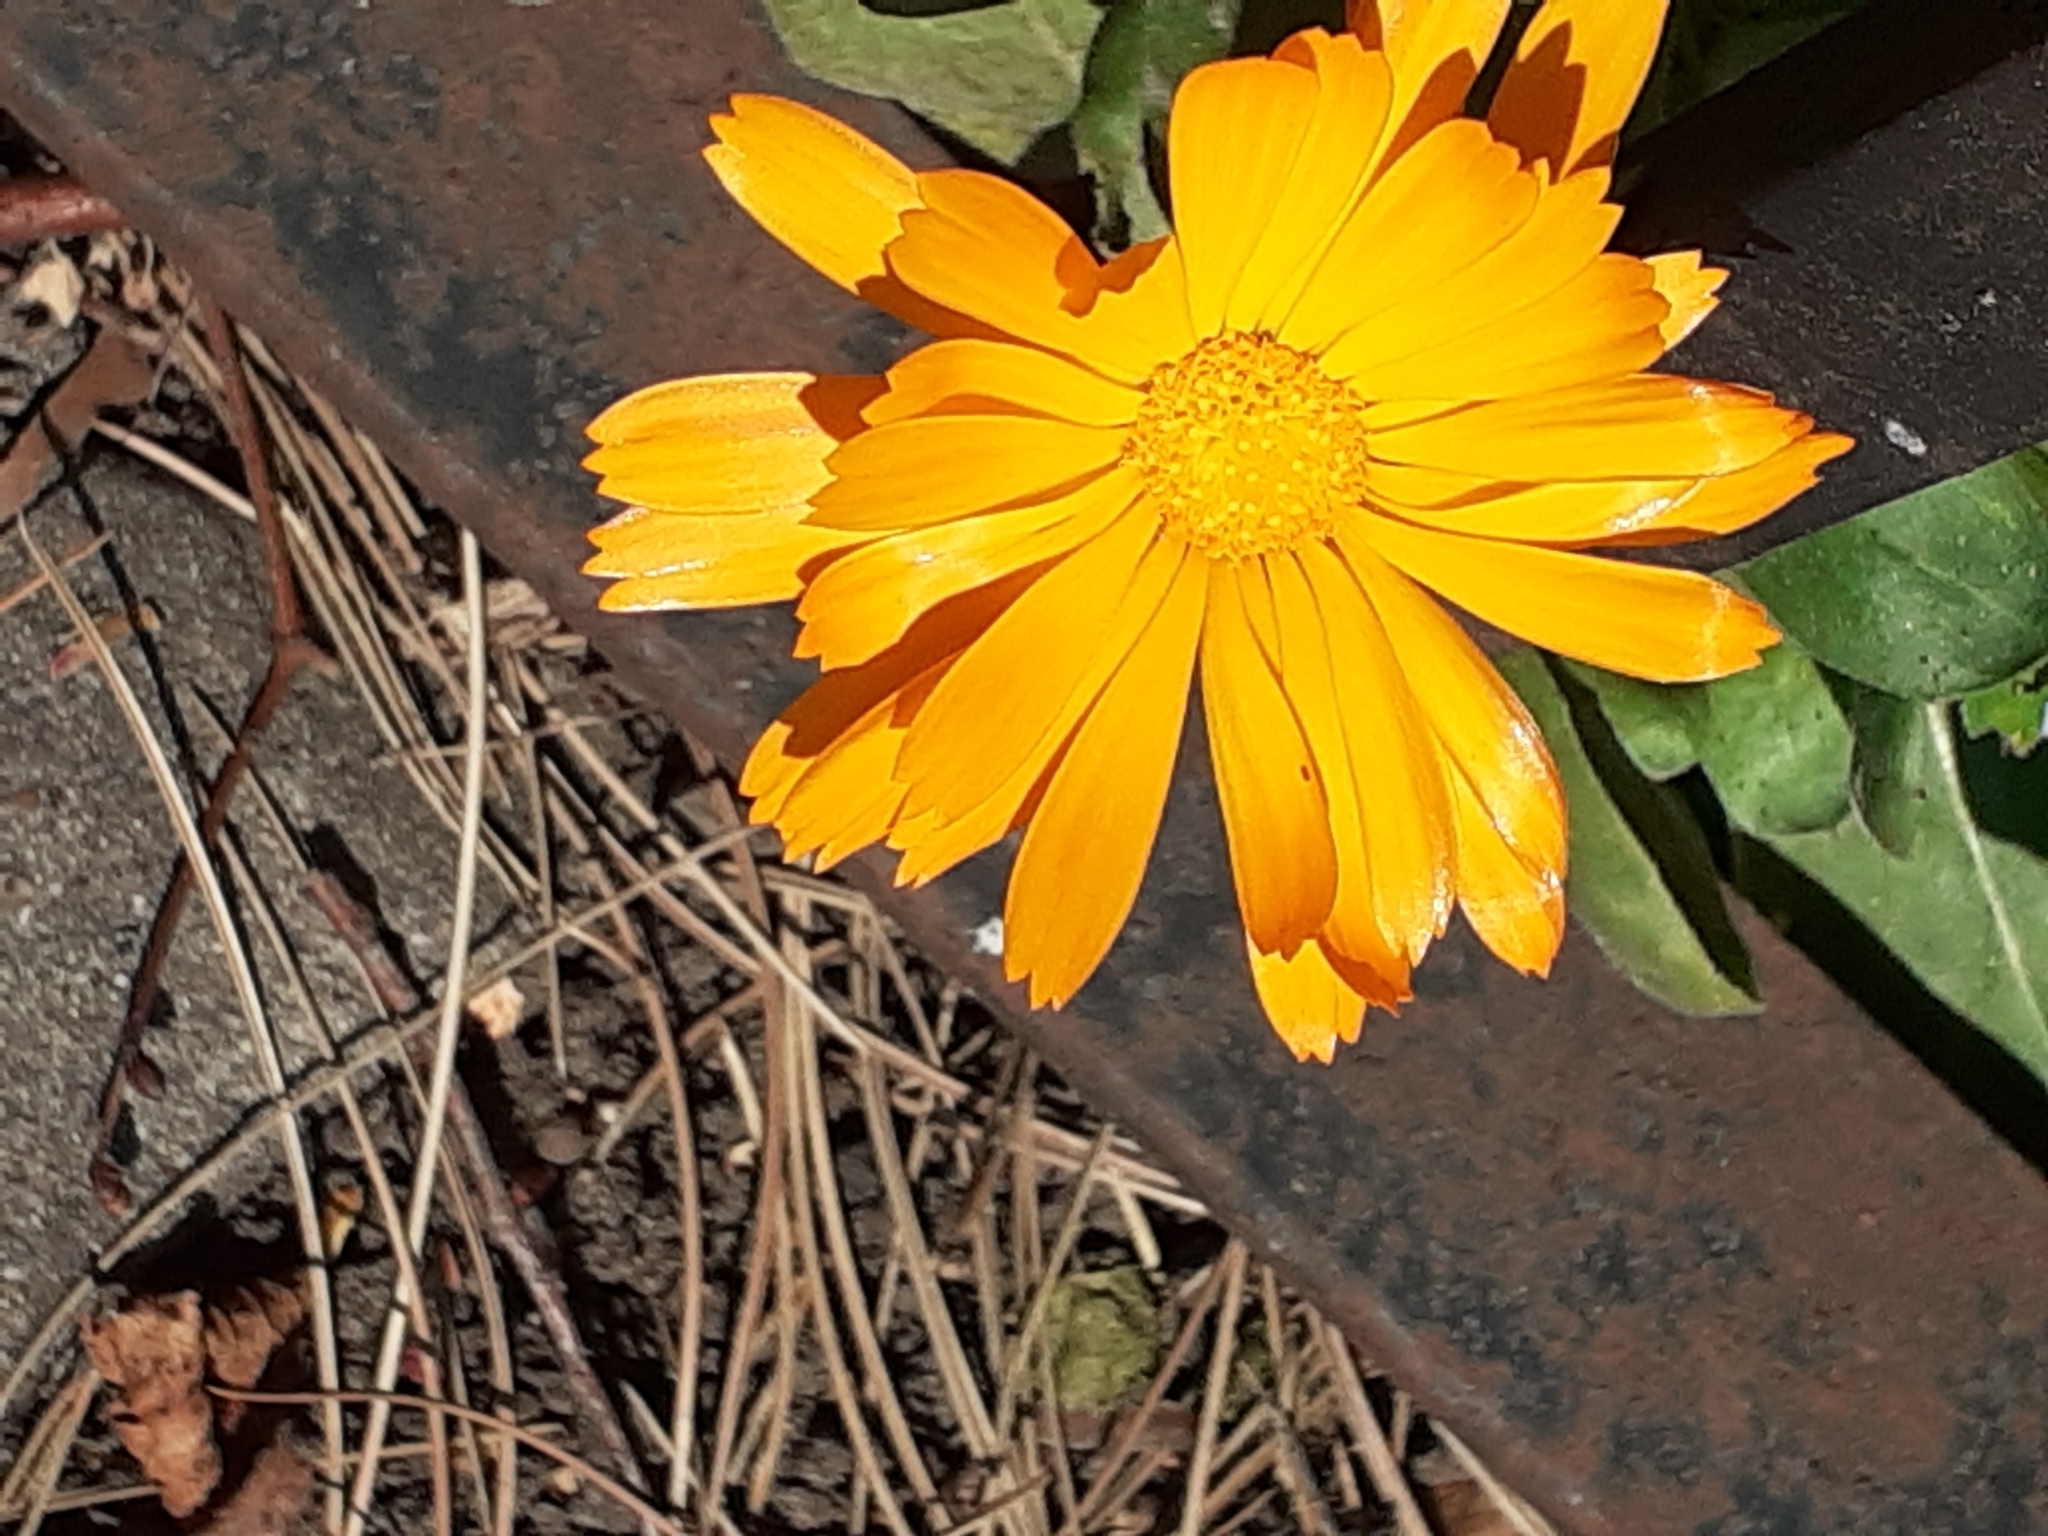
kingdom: Plantae
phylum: Tracheophyta
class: Magnoliopsida
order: Asterales
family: Asteraceae
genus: Calendula
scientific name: Calendula officinalis
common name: Pot marigold
